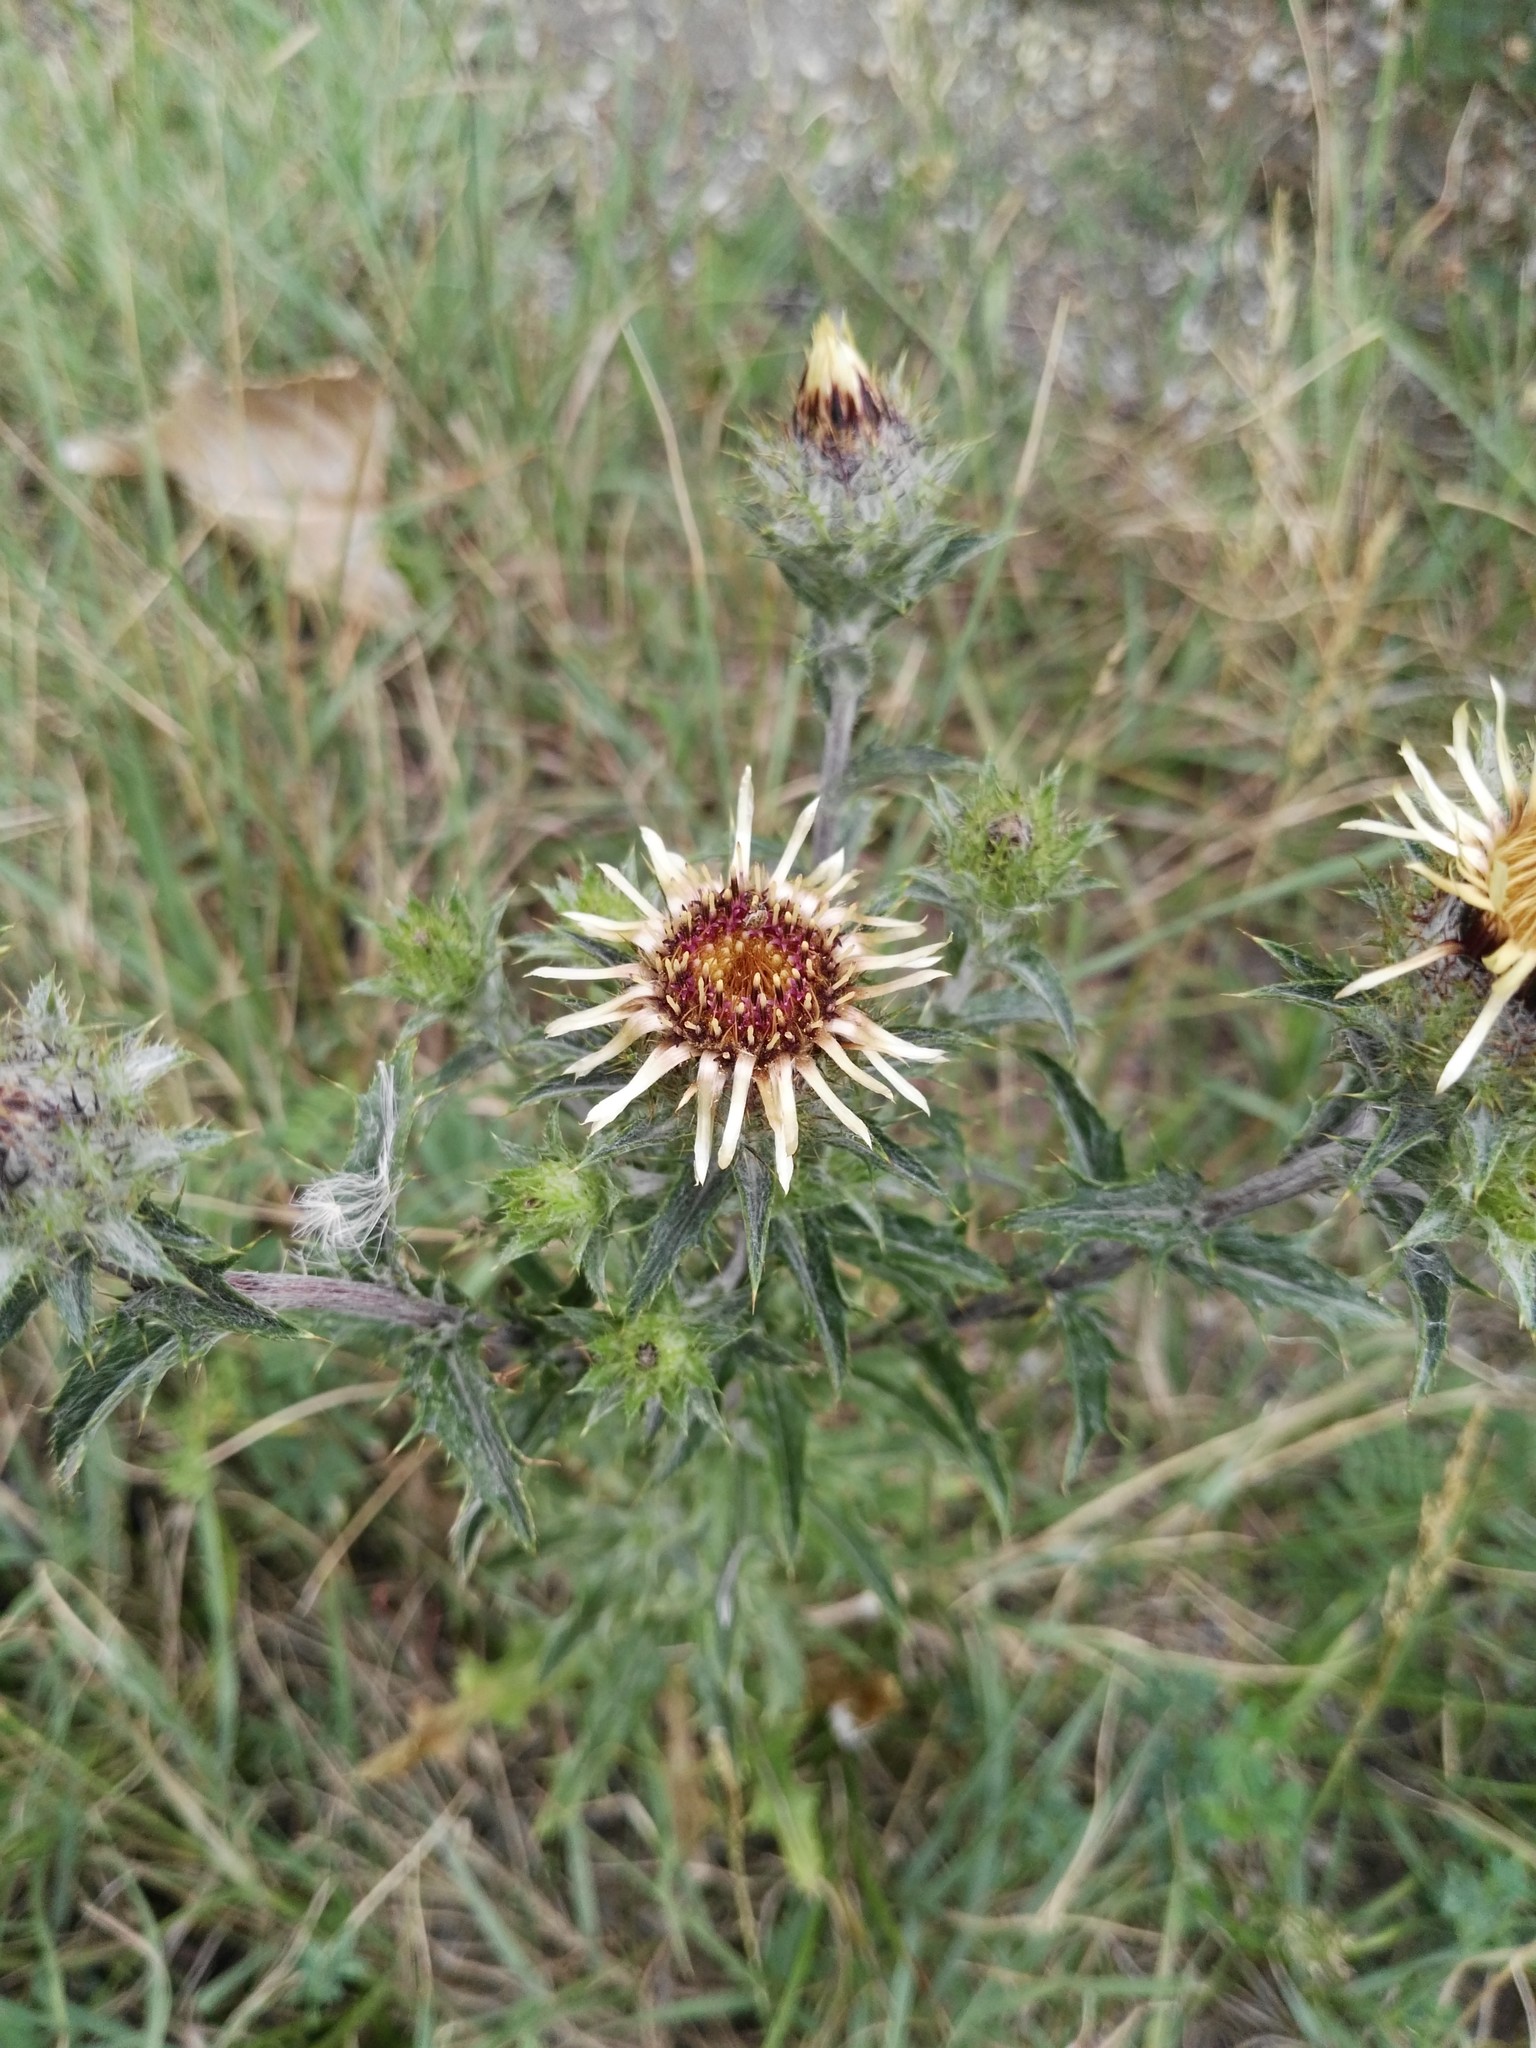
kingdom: Plantae
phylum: Tracheophyta
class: Magnoliopsida
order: Asterales
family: Asteraceae
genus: Carlina
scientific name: Carlina vulgaris
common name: Carline thistle
